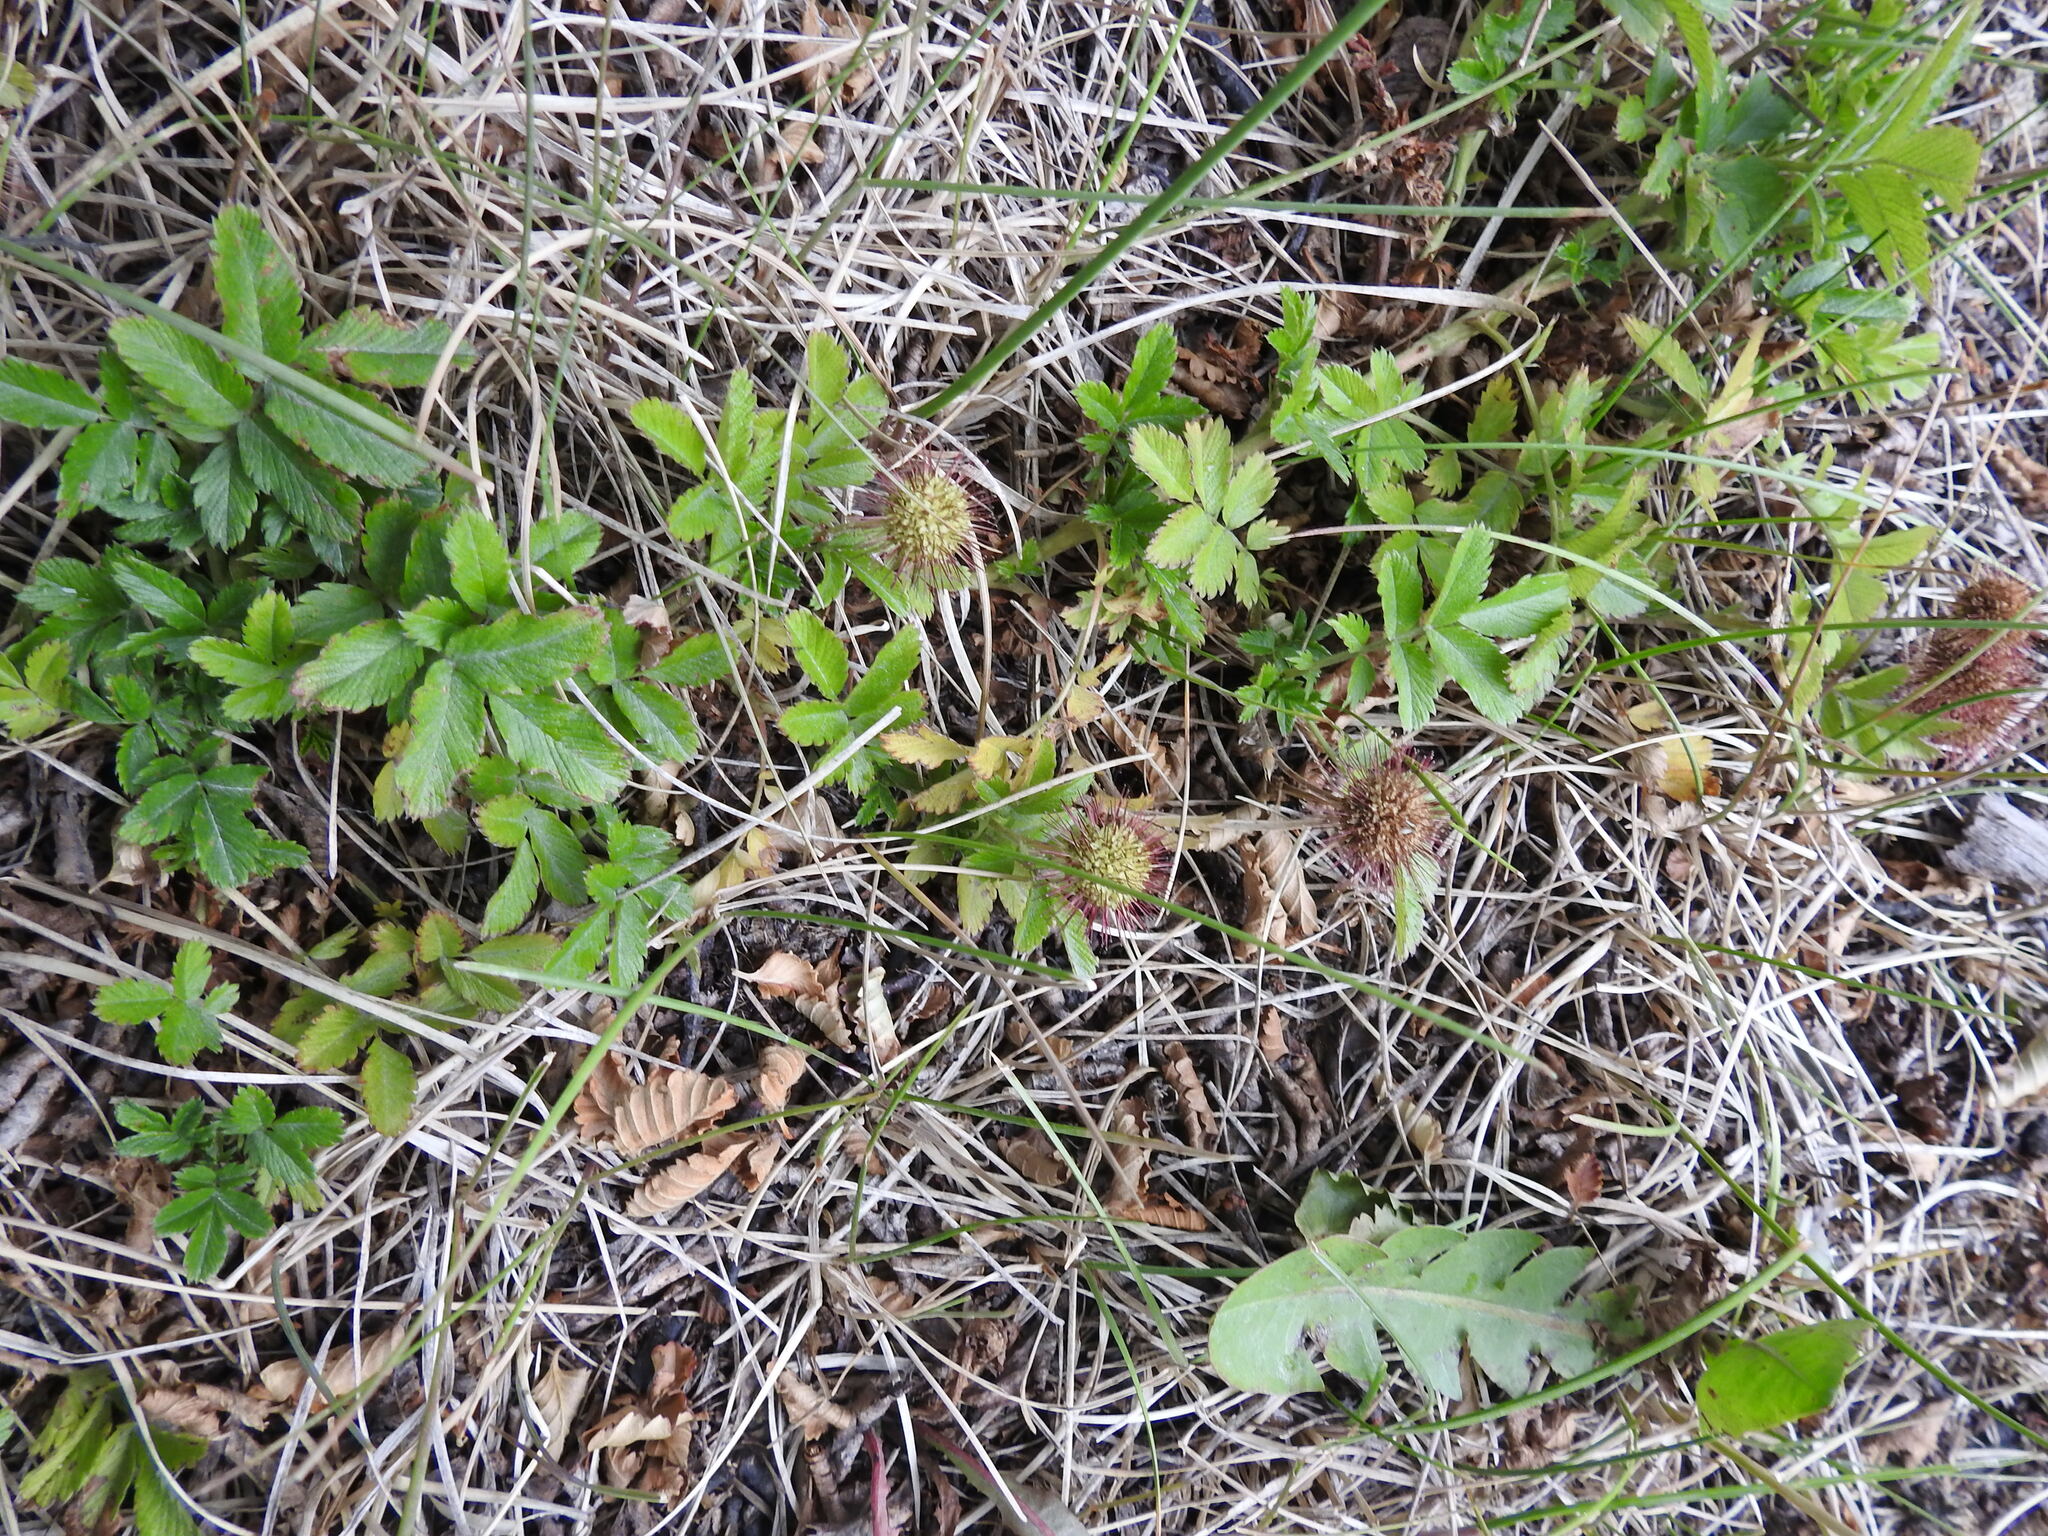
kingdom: Plantae
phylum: Tracheophyta
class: Magnoliopsida
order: Rosales
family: Rosaceae
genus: Acaena
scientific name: Acaena ovalifolia
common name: Two-spined acaena
